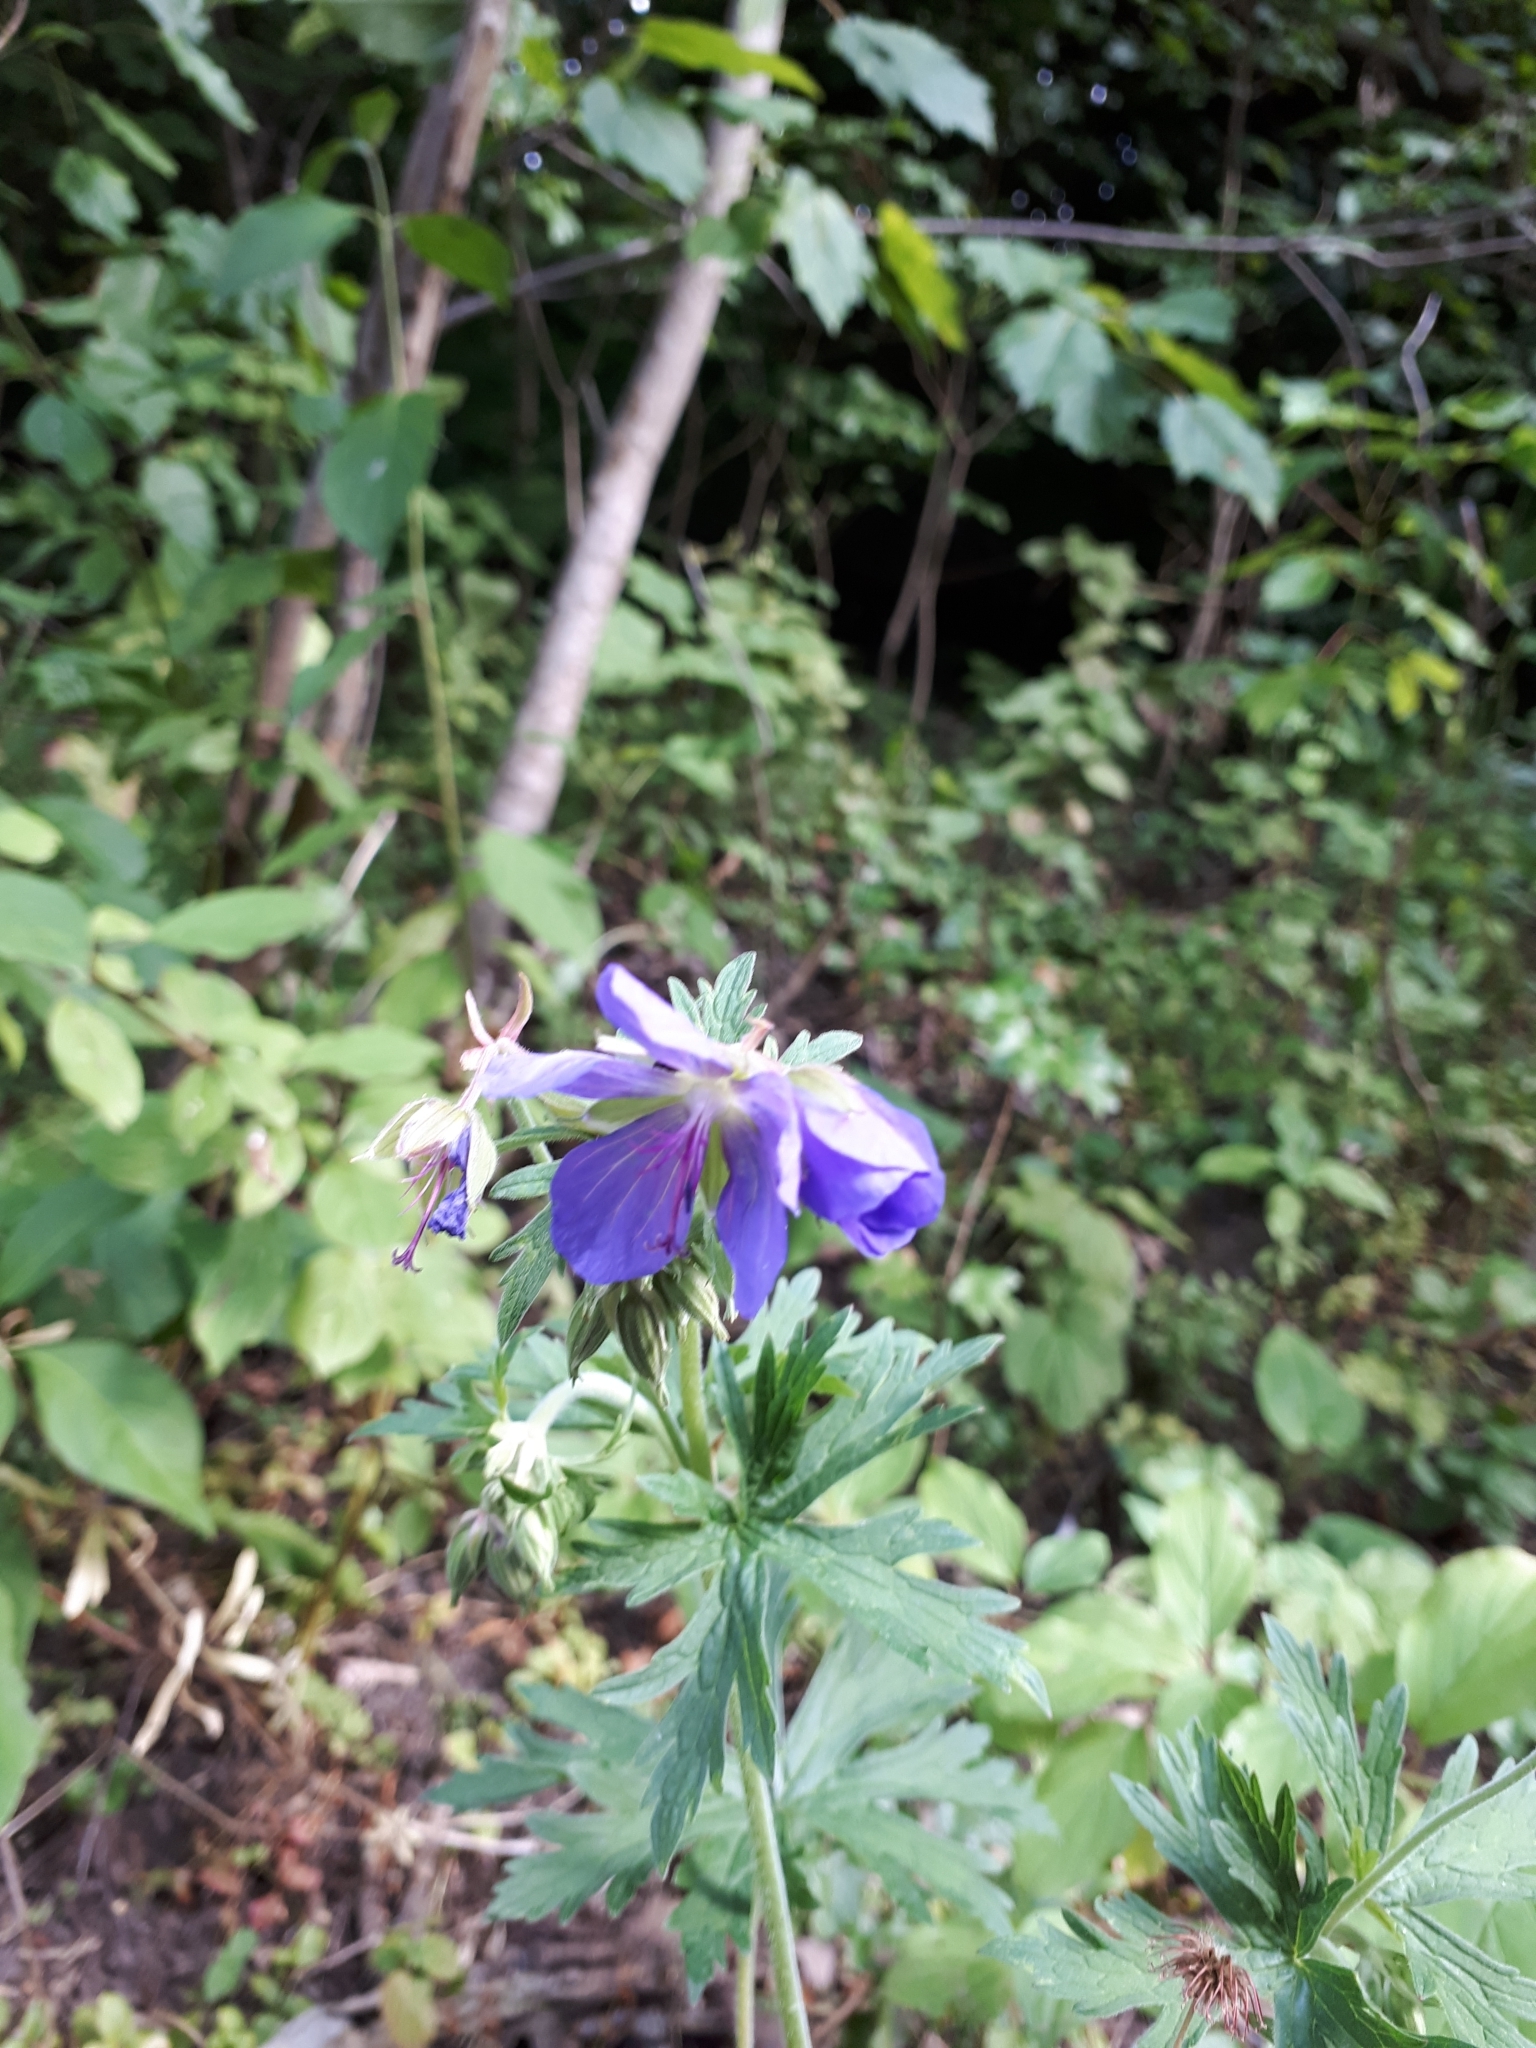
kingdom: Plantae
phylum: Tracheophyta
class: Magnoliopsida
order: Geraniales
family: Geraniaceae
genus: Geranium
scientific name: Geranium pratense
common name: Meadow crane's-bill
